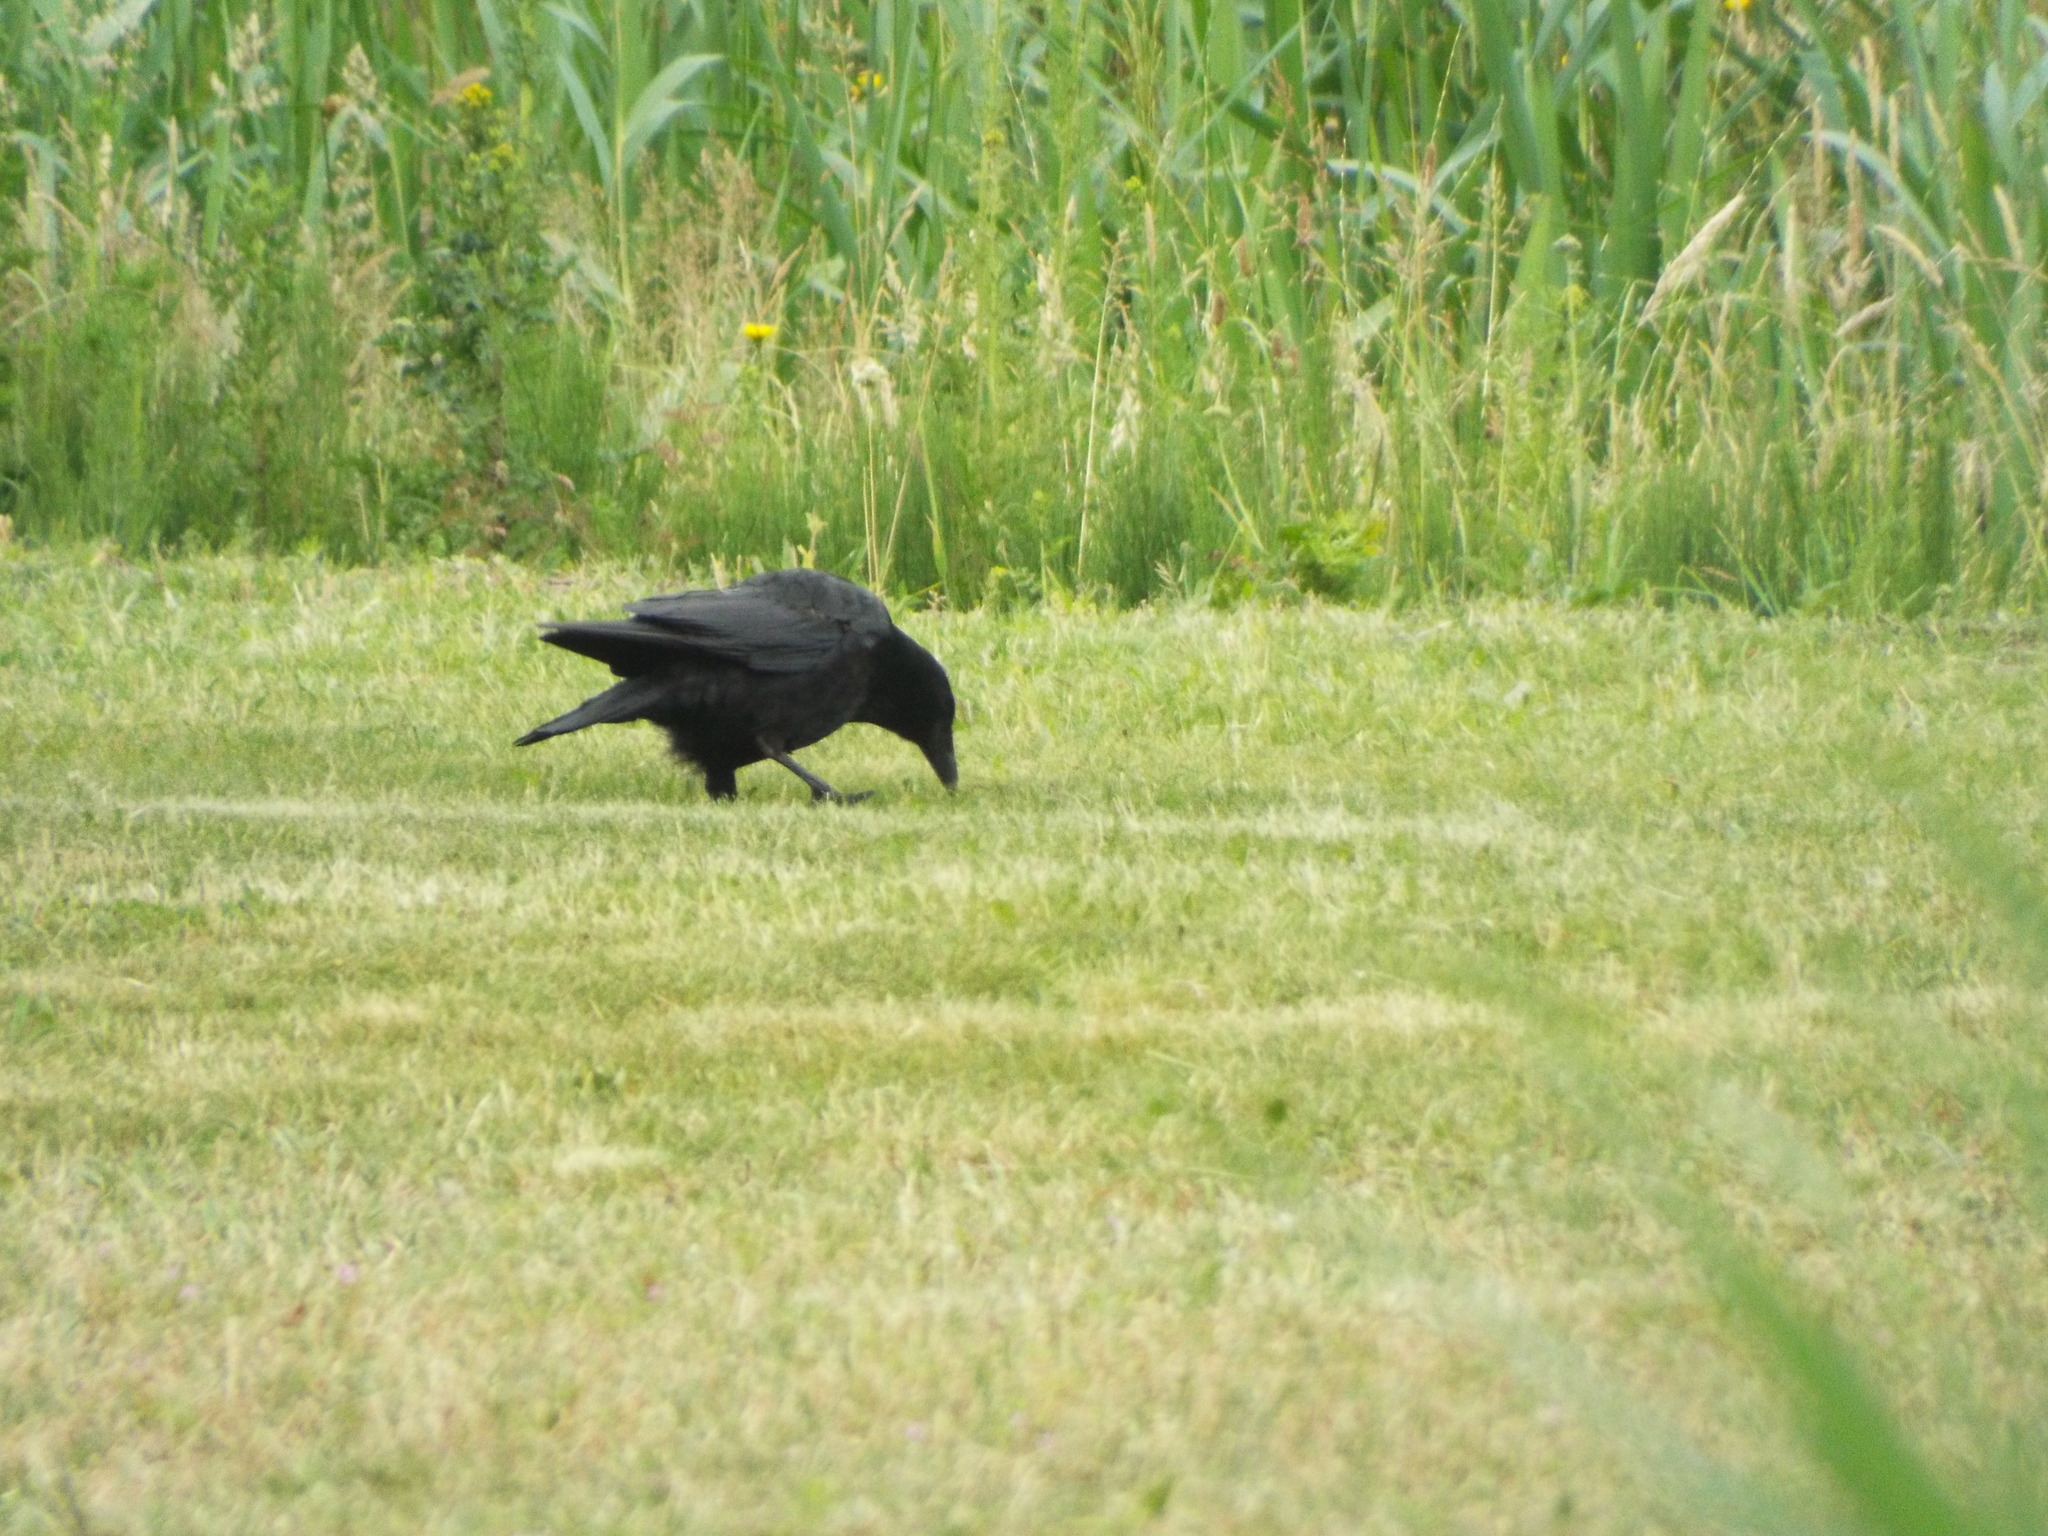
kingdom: Animalia
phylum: Chordata
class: Aves
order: Passeriformes
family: Corvidae
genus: Corvus
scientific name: Corvus corone
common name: Carrion crow
